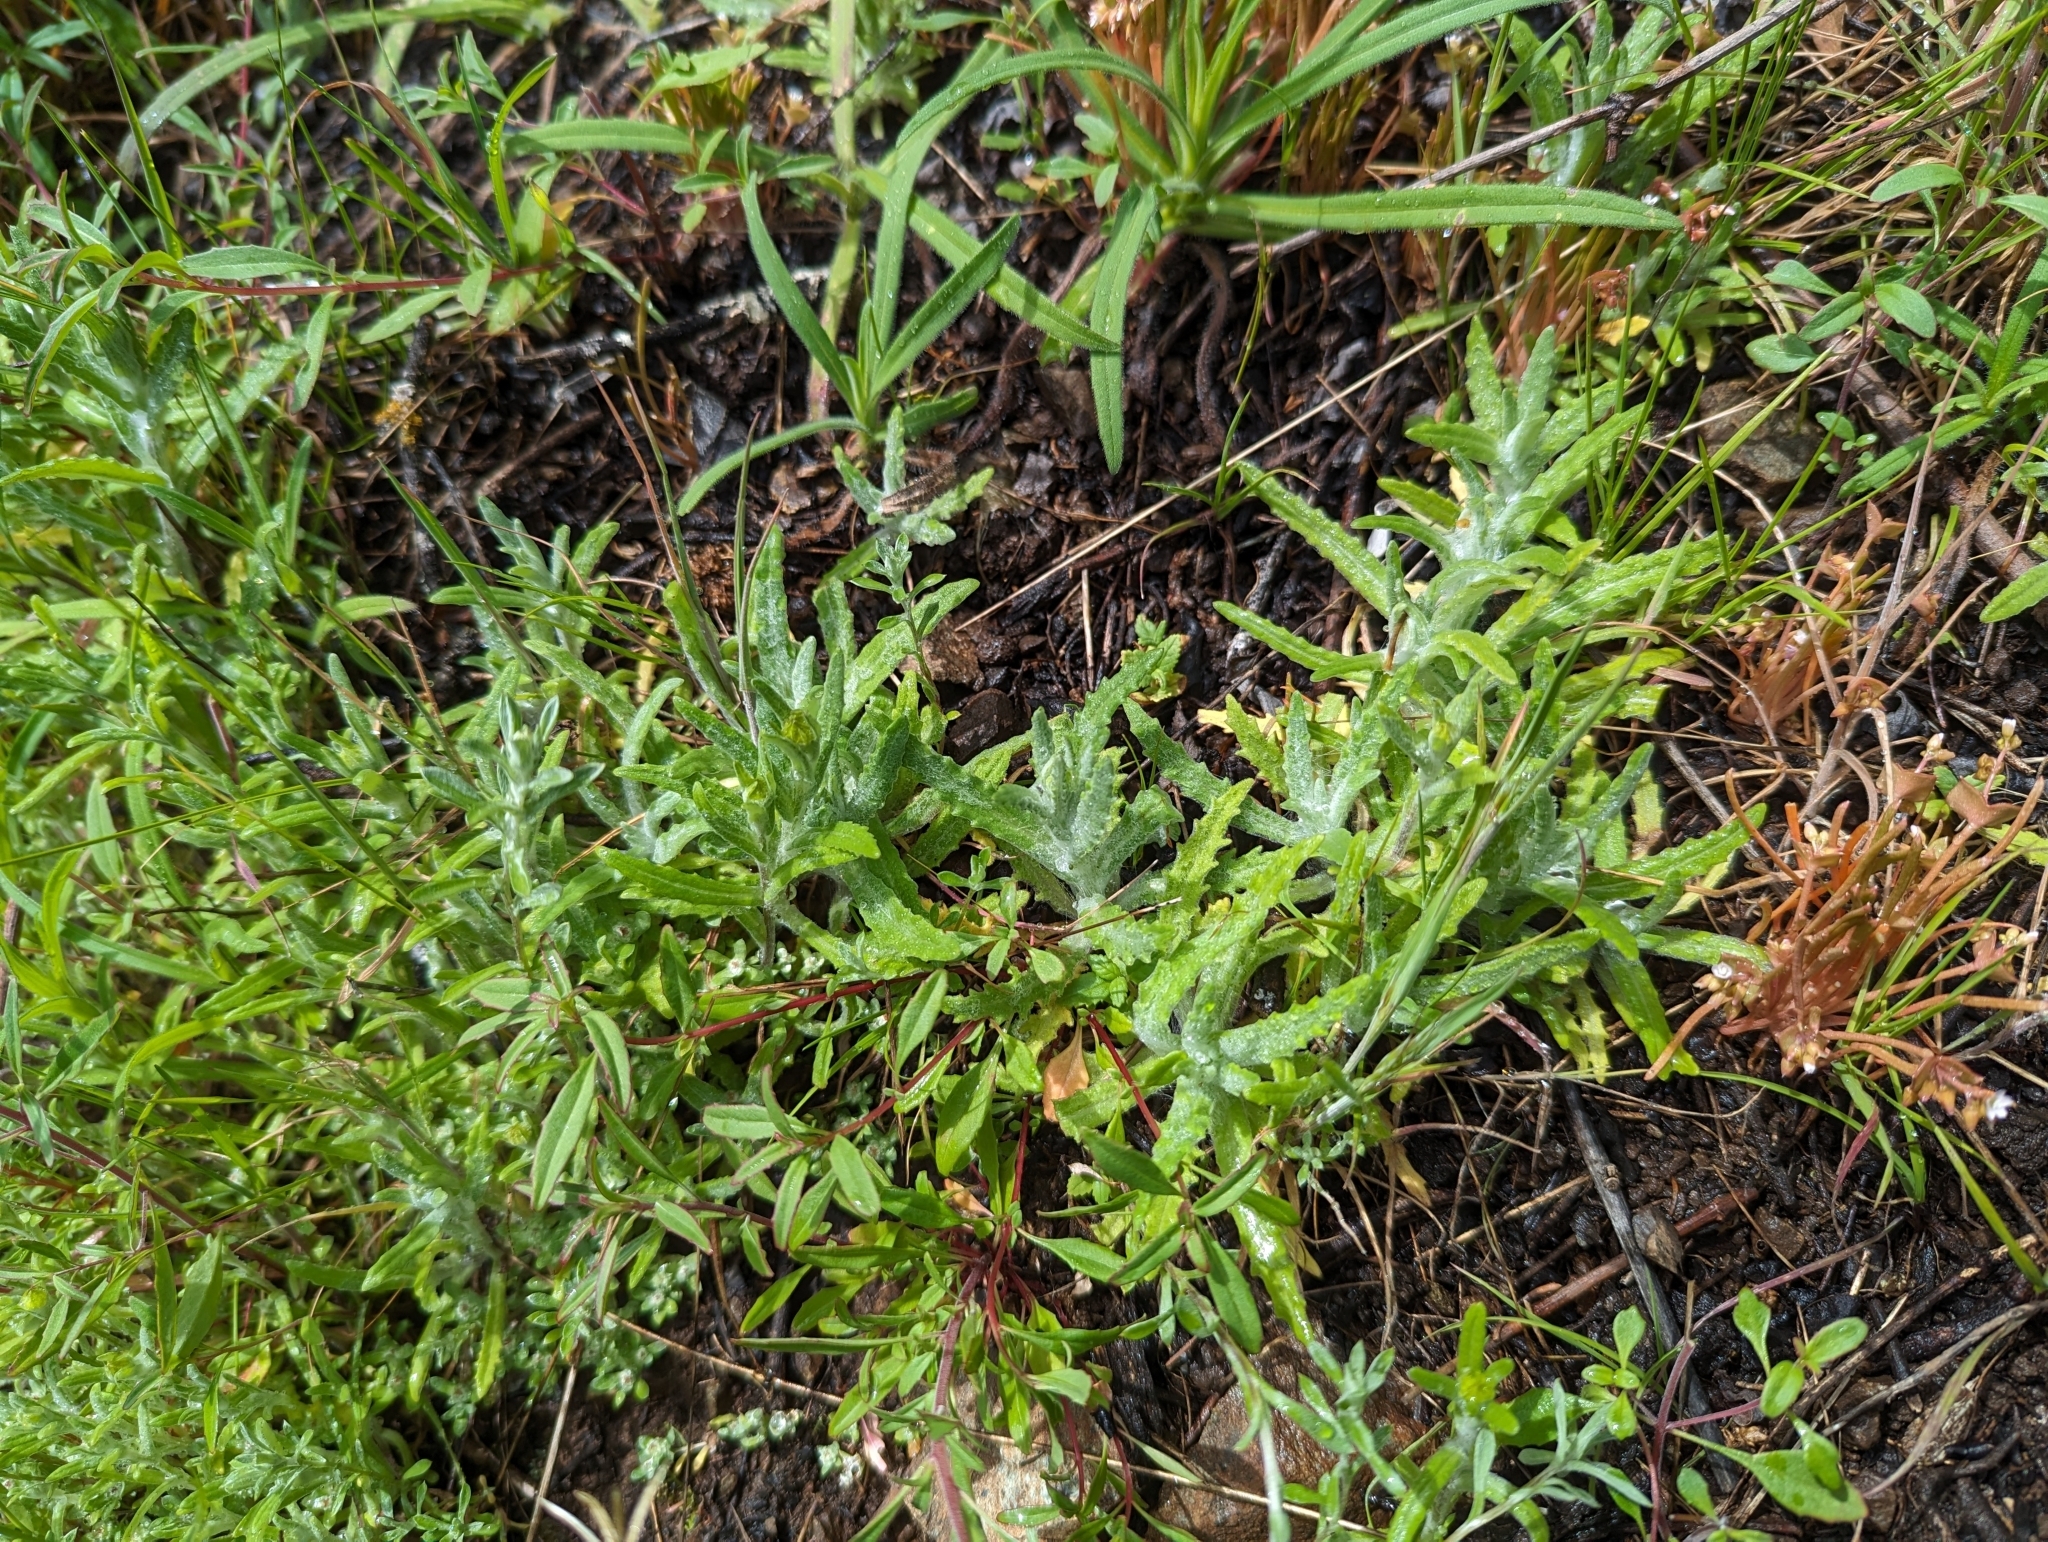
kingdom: Plantae
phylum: Tracheophyta
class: Magnoliopsida
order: Asterales
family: Asteraceae
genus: Monolopia
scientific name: Monolopia gracilens
